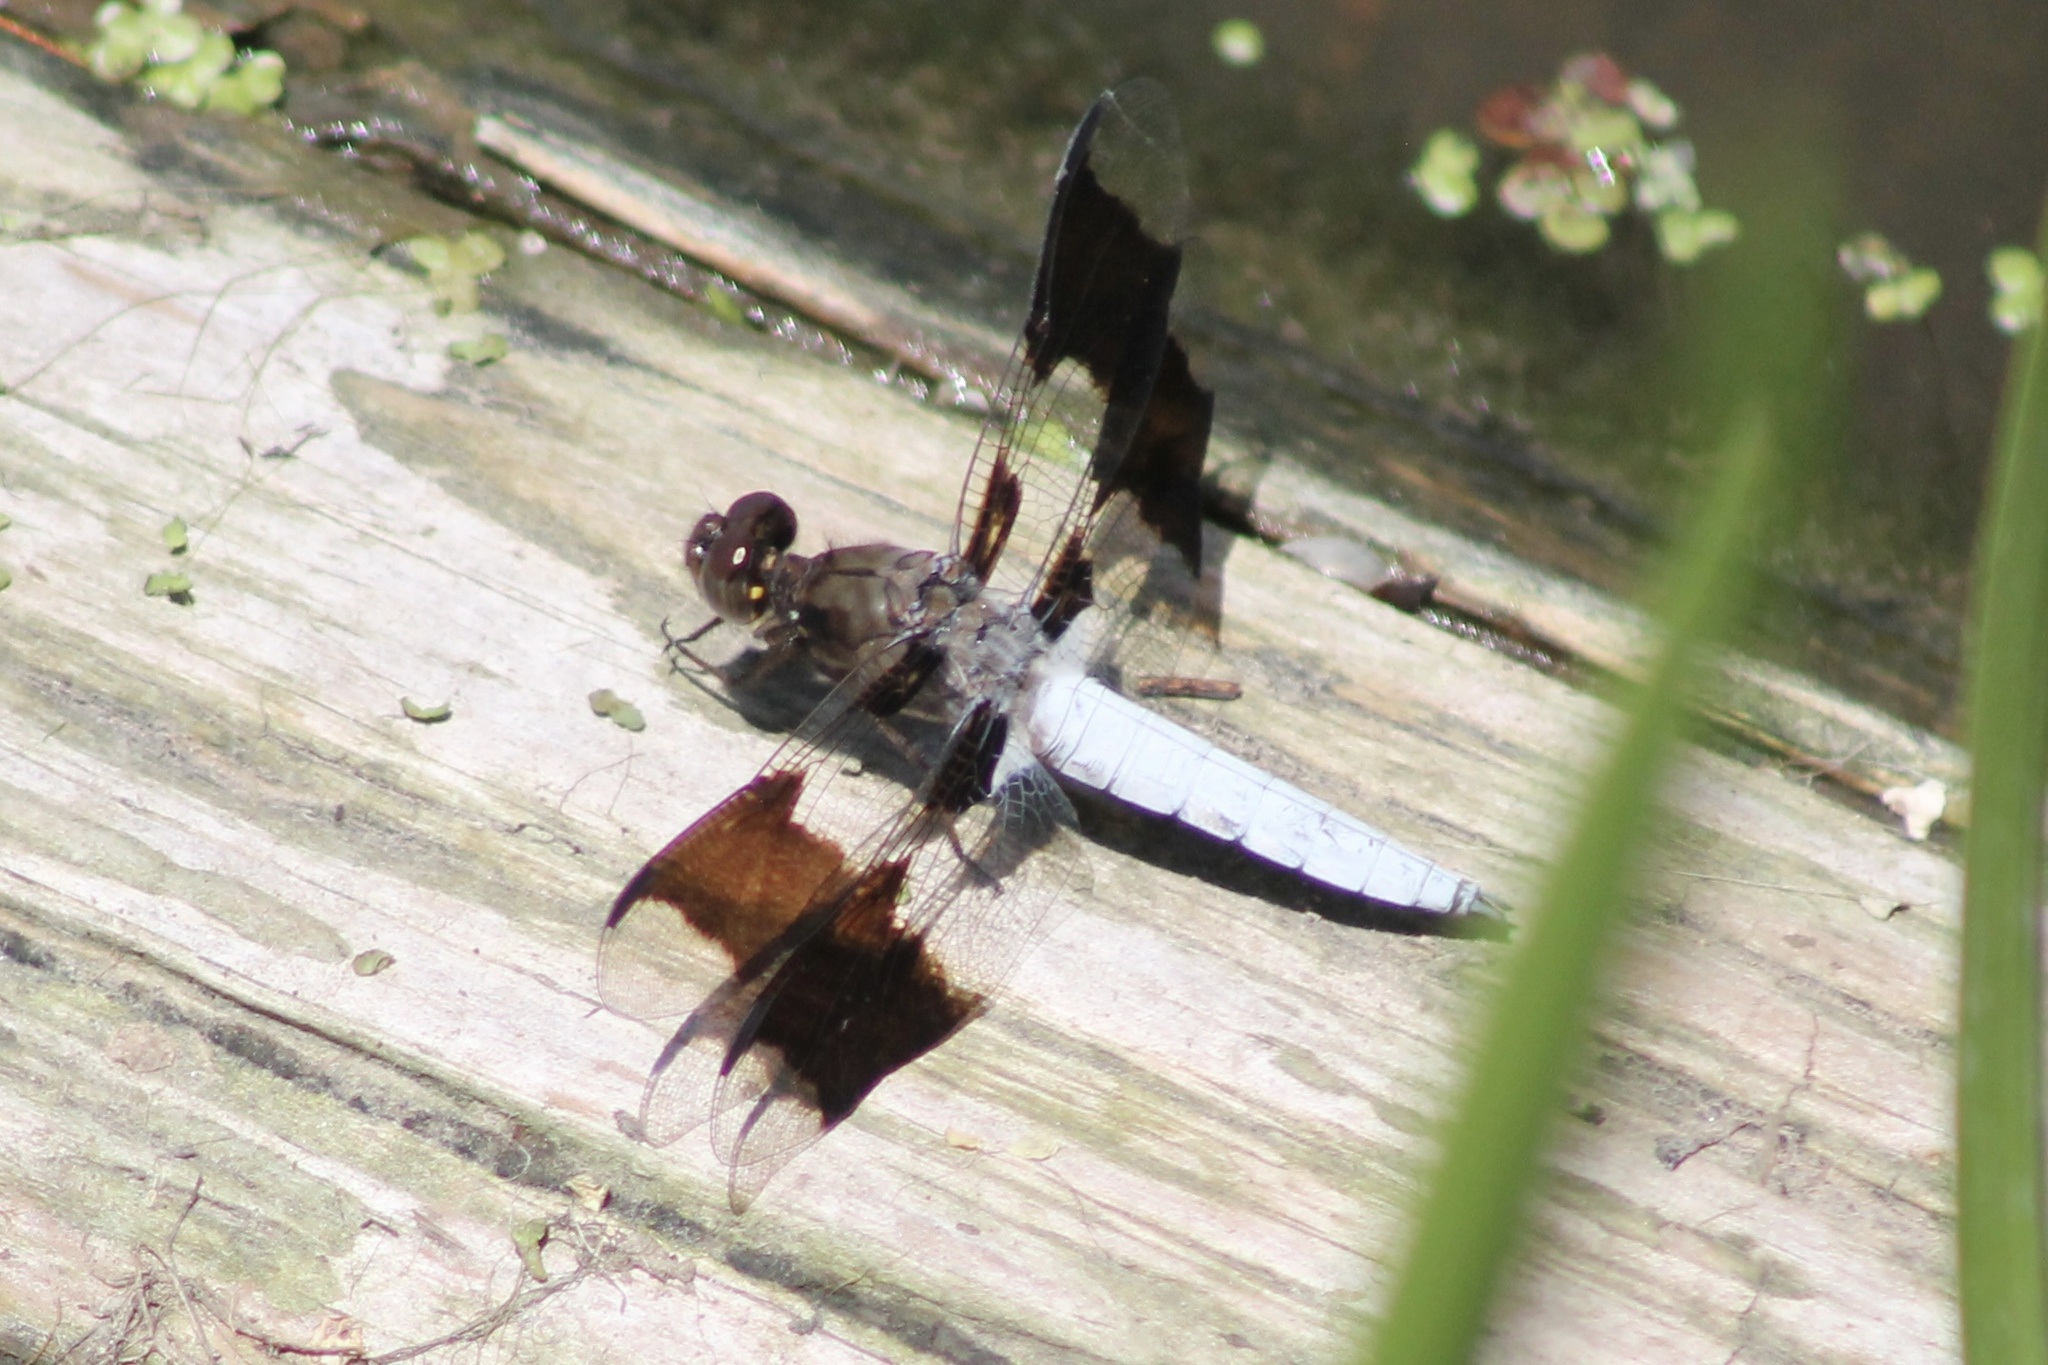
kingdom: Animalia
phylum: Arthropoda
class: Insecta
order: Odonata
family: Libellulidae
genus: Plathemis
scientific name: Plathemis lydia
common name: Common whitetail
